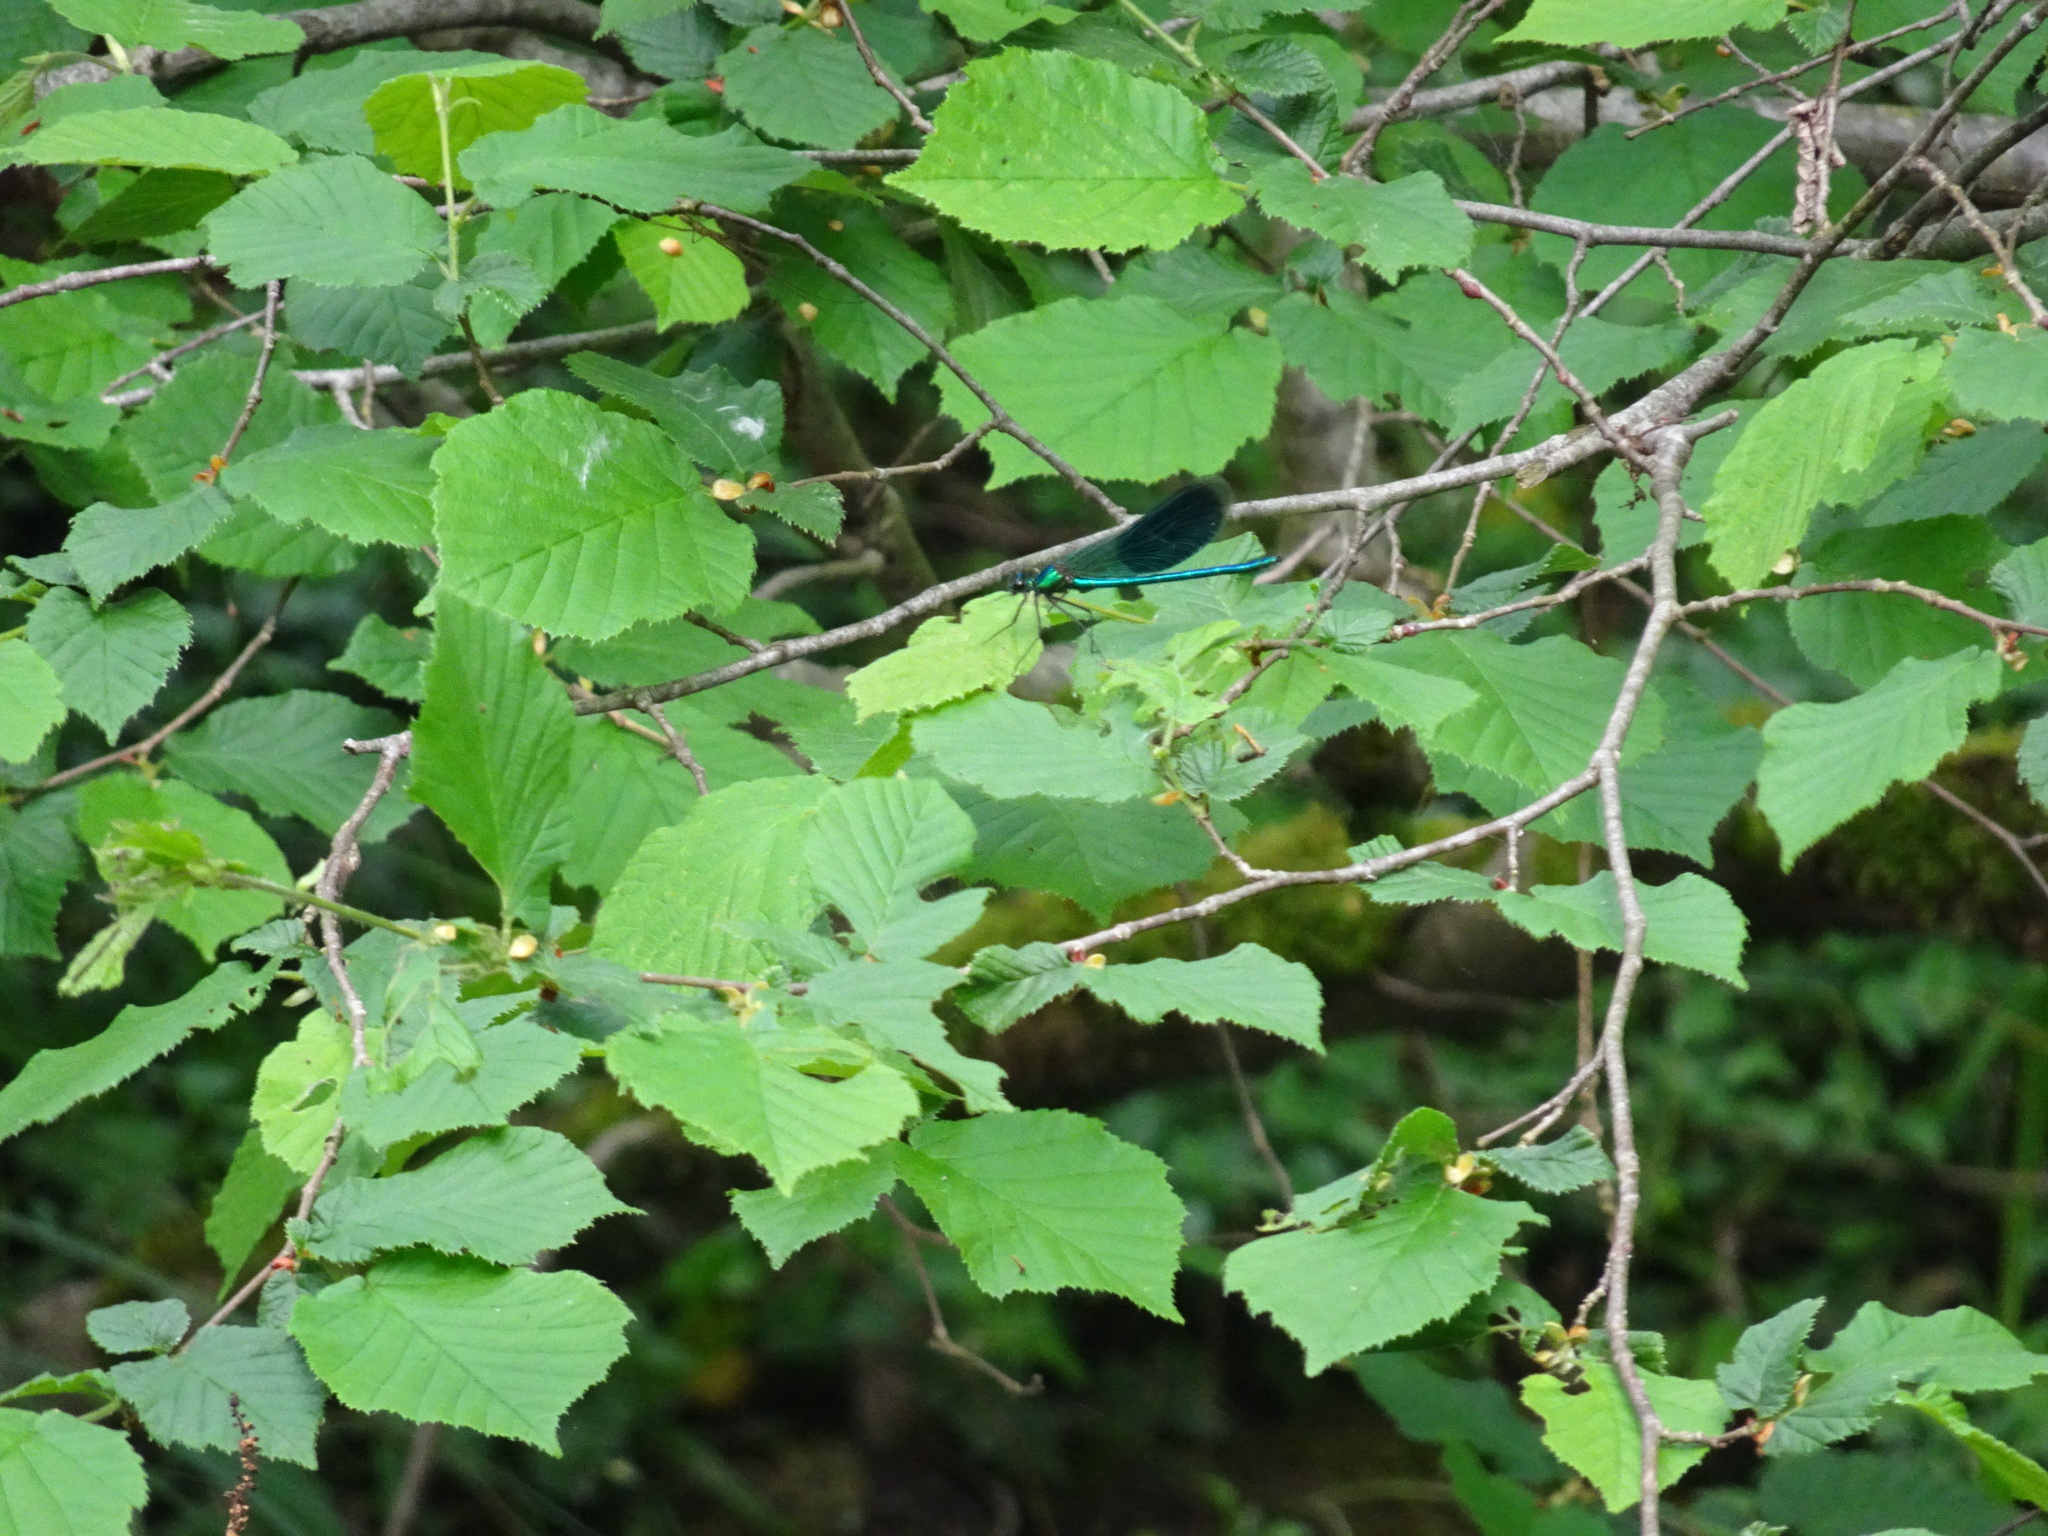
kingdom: Animalia
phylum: Arthropoda
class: Insecta
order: Odonata
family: Calopterygidae
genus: Calopteryx
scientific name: Calopteryx splendens
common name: Banded demoiselle
